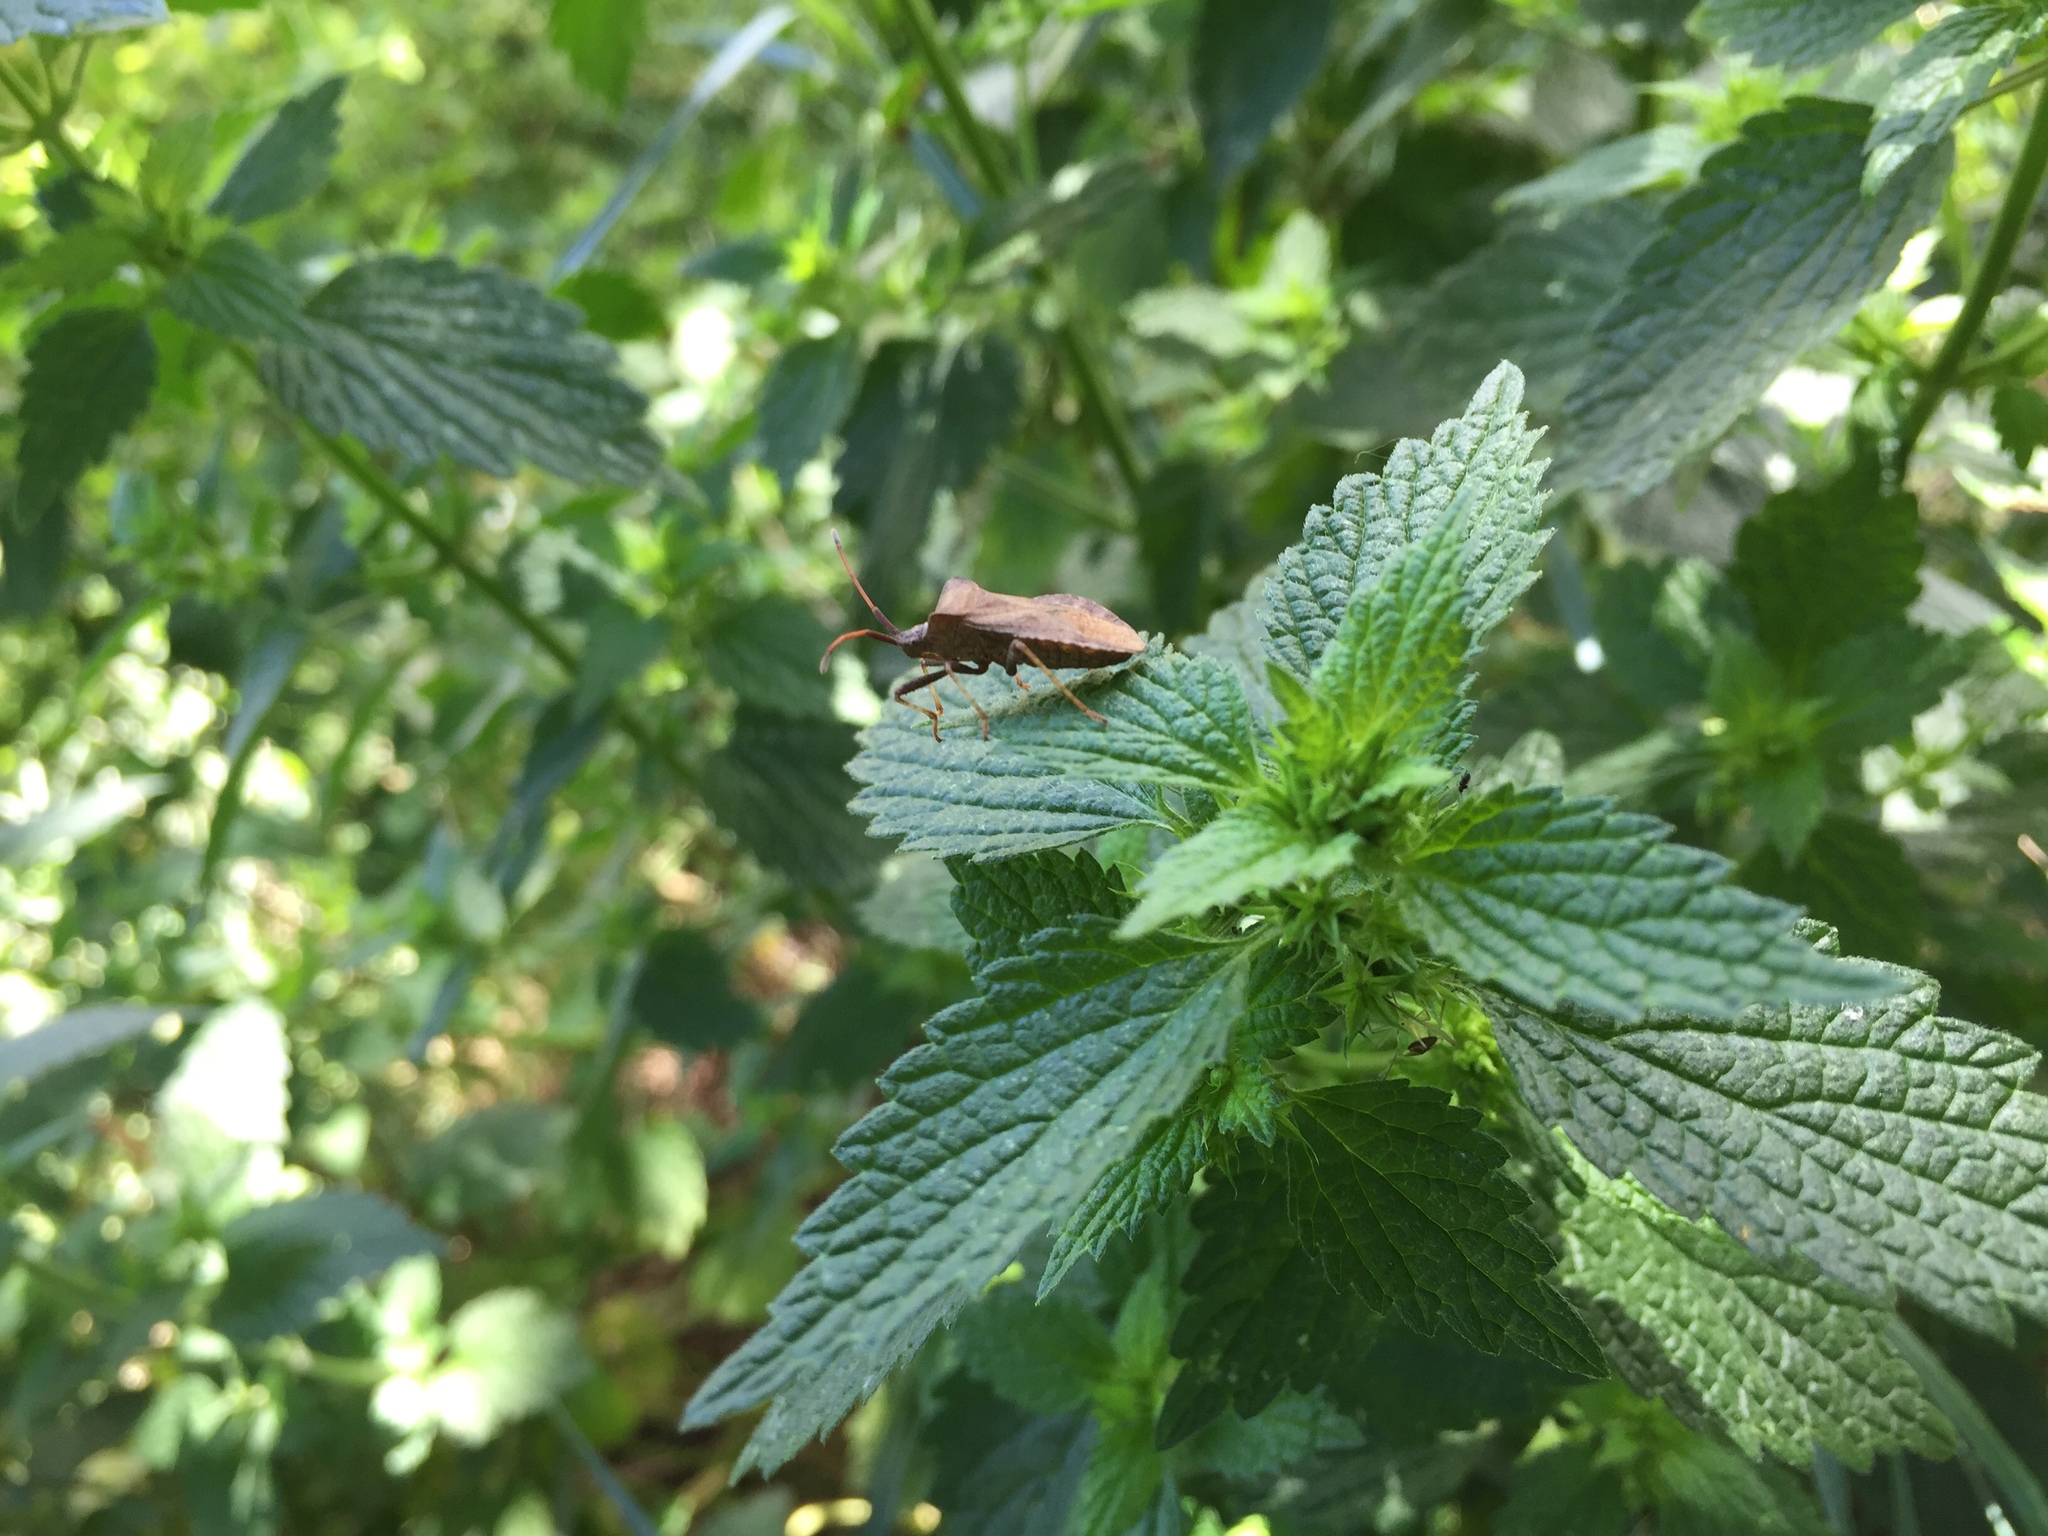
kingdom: Animalia
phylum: Arthropoda
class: Insecta
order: Hemiptera
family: Coreidae
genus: Coreus
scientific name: Coreus marginatus
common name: Dock bug
